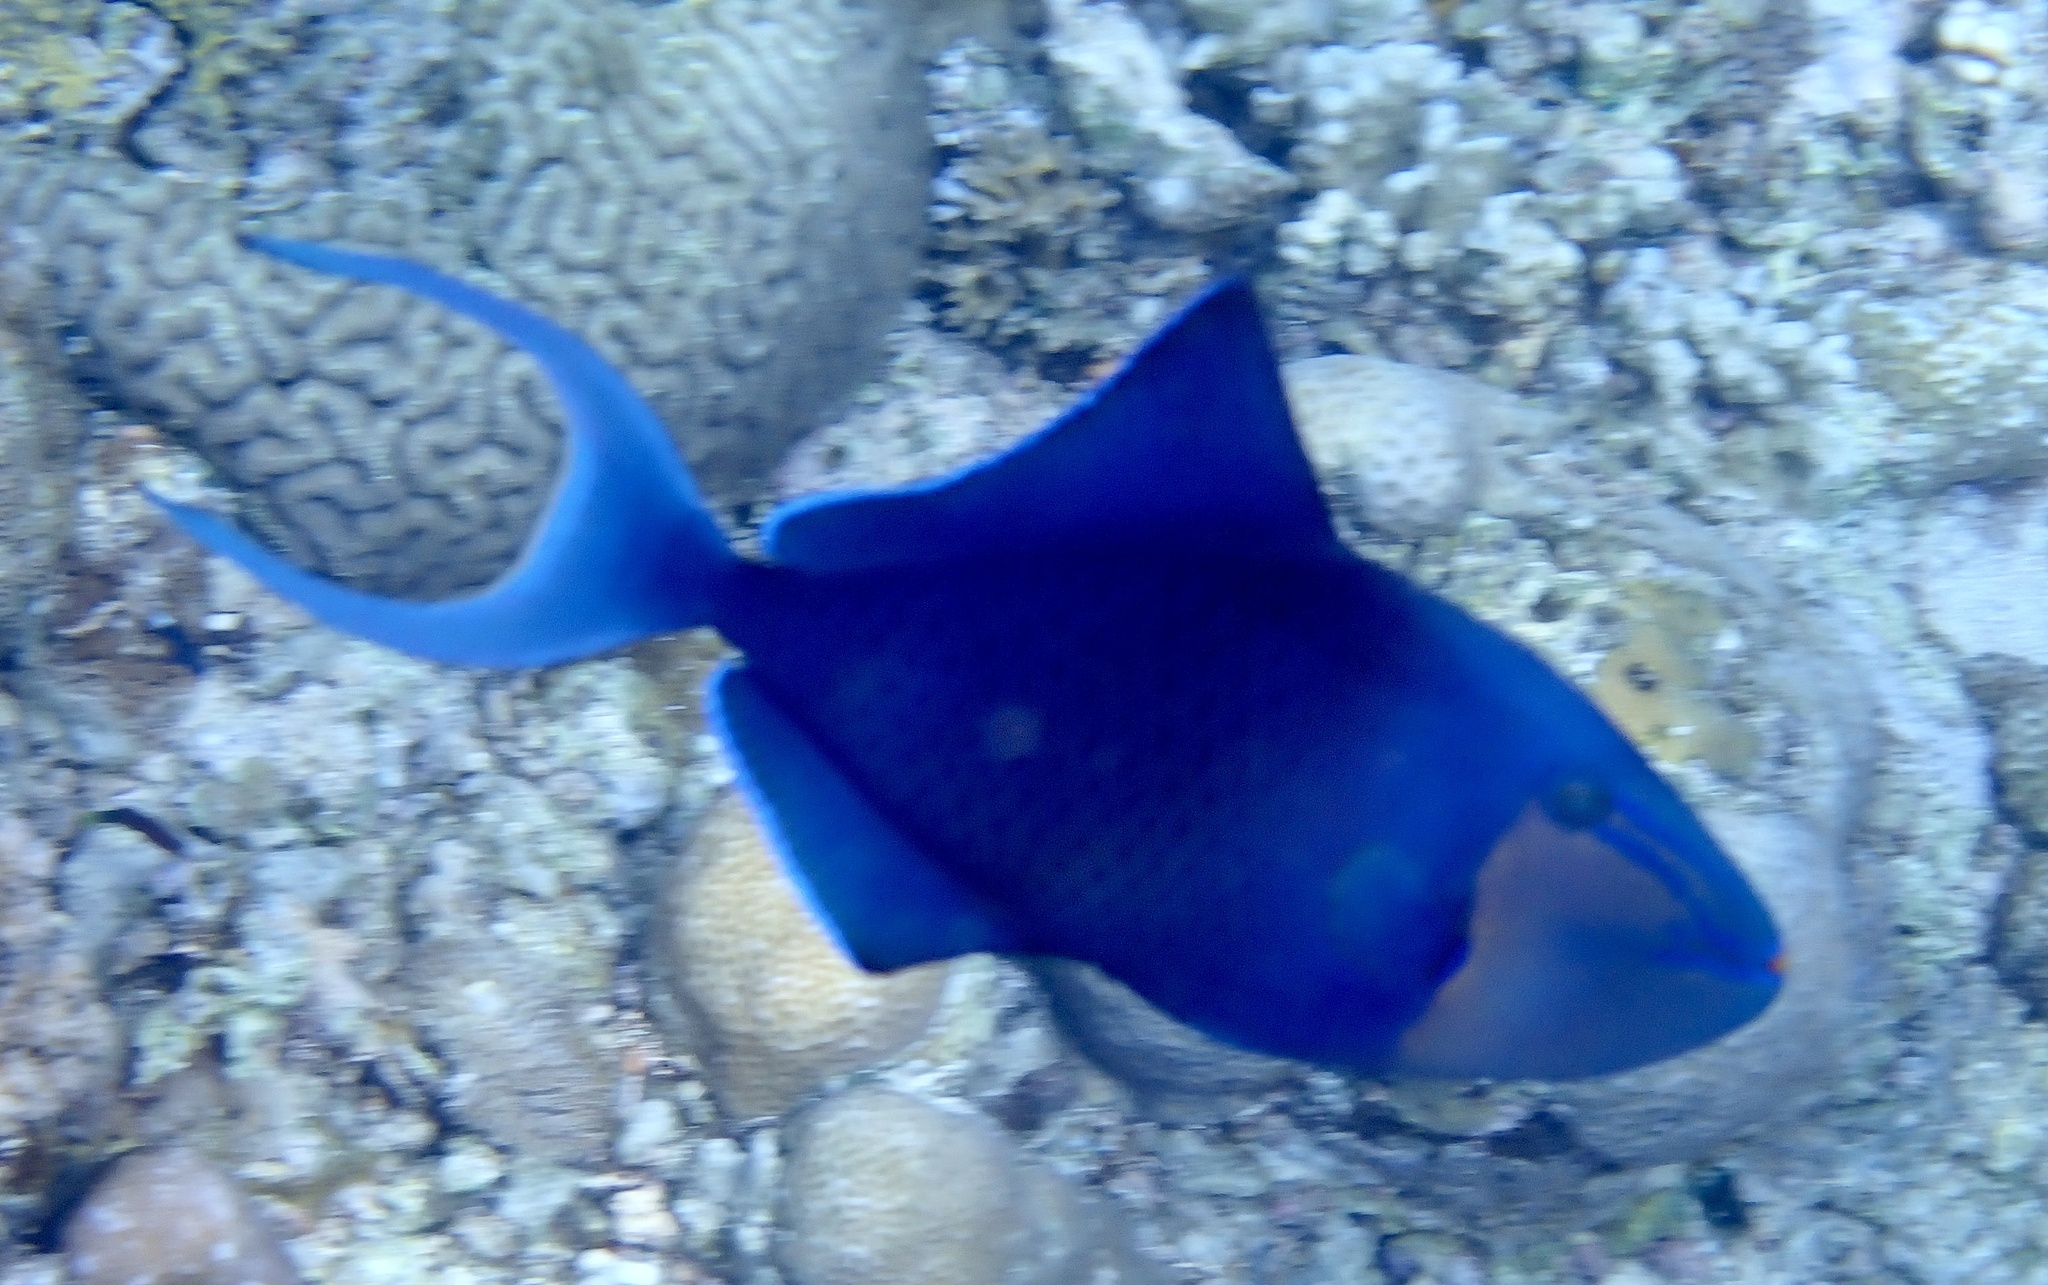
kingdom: Animalia
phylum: Chordata
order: Tetraodontiformes
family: Balistidae
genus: Odonus
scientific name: Odonus niger
